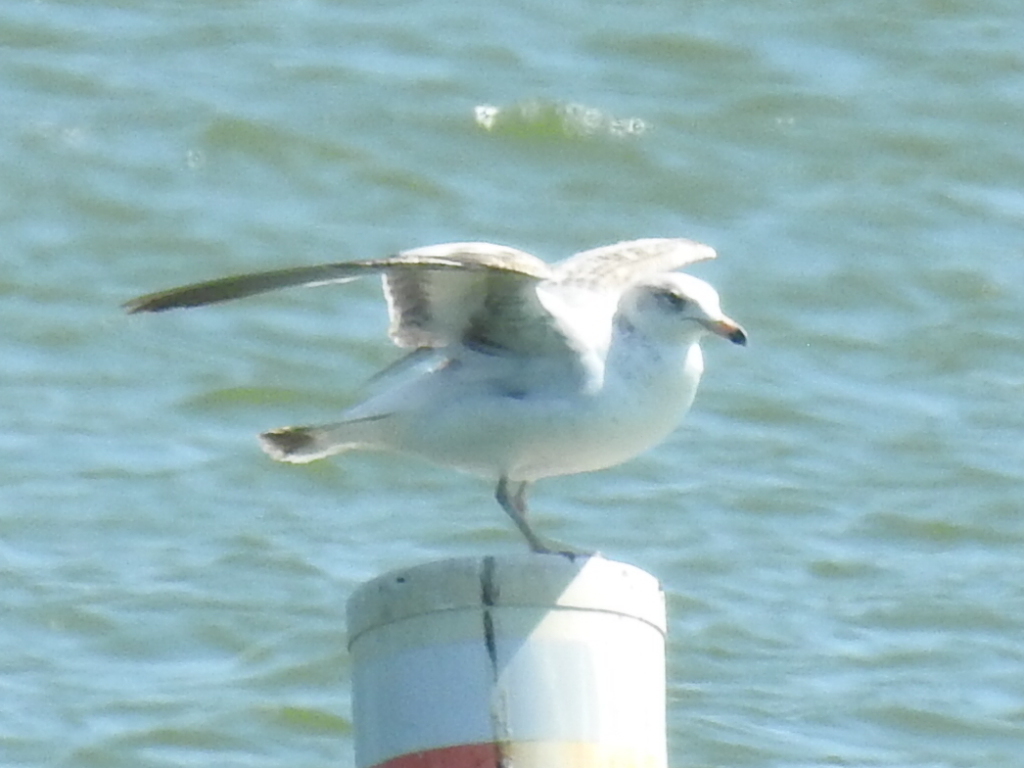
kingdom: Animalia
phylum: Chordata
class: Aves
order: Charadriiformes
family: Laridae
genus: Larus
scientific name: Larus delawarensis
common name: Ring-billed gull
